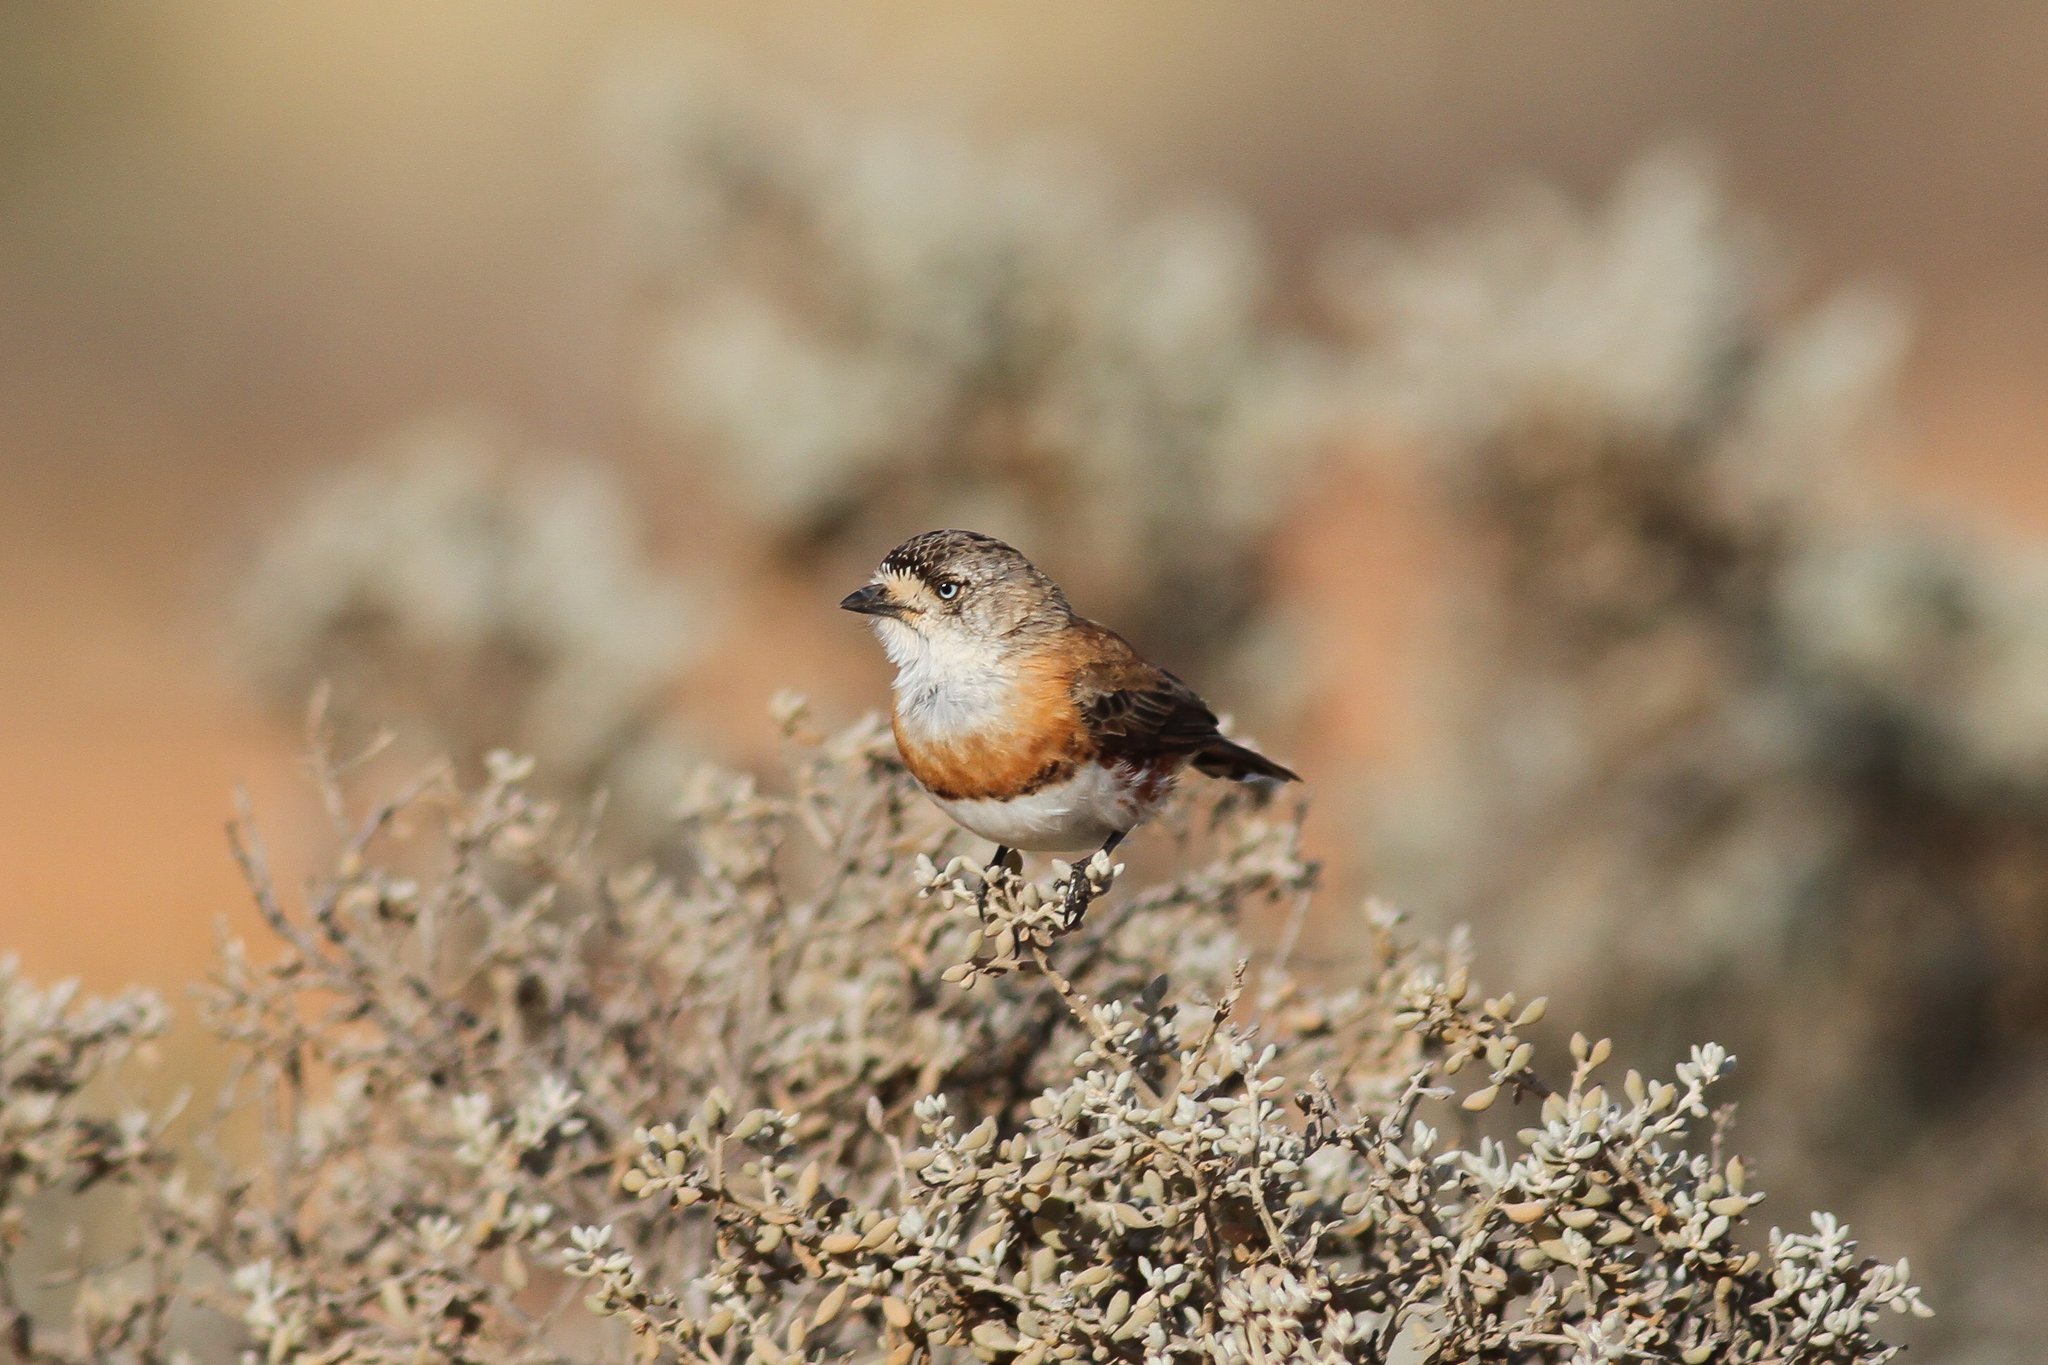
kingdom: Animalia
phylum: Chordata
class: Aves
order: Passeriformes
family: Acanthizidae
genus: Aphelocephala
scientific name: Aphelocephala pectoralis
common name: Chestnut-breasted whiteface
